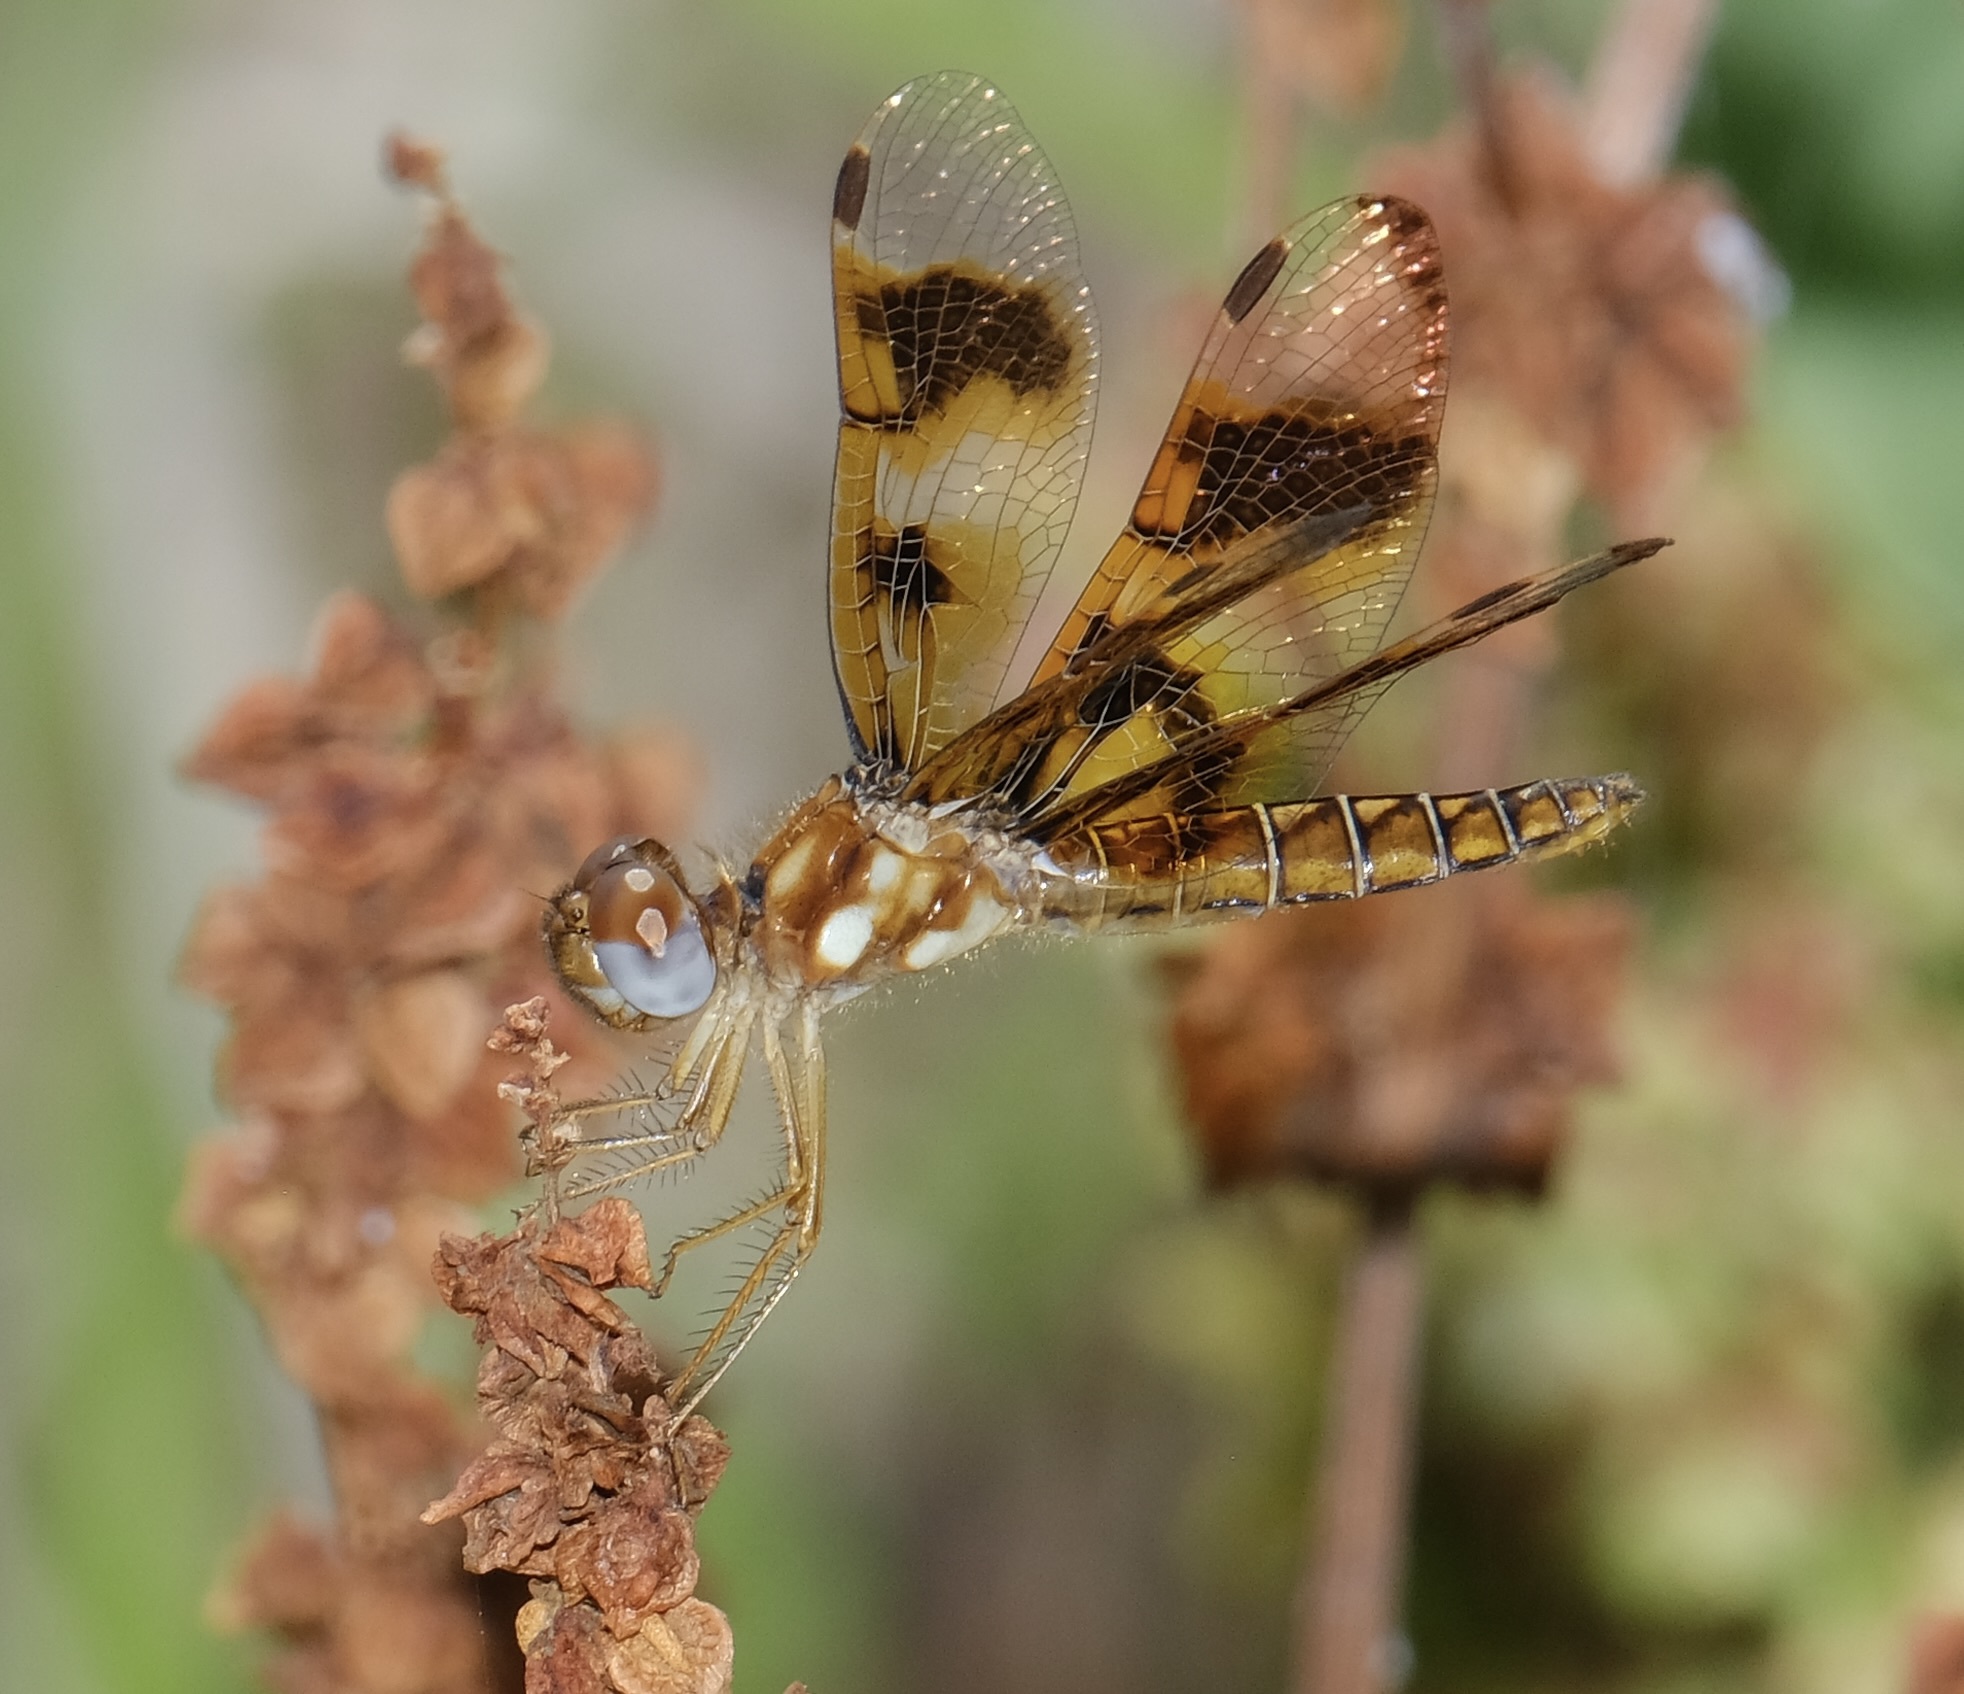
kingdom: Animalia
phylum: Arthropoda
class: Insecta
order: Odonata
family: Libellulidae
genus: Perithemis
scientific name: Perithemis tenera
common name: Eastern amberwing
